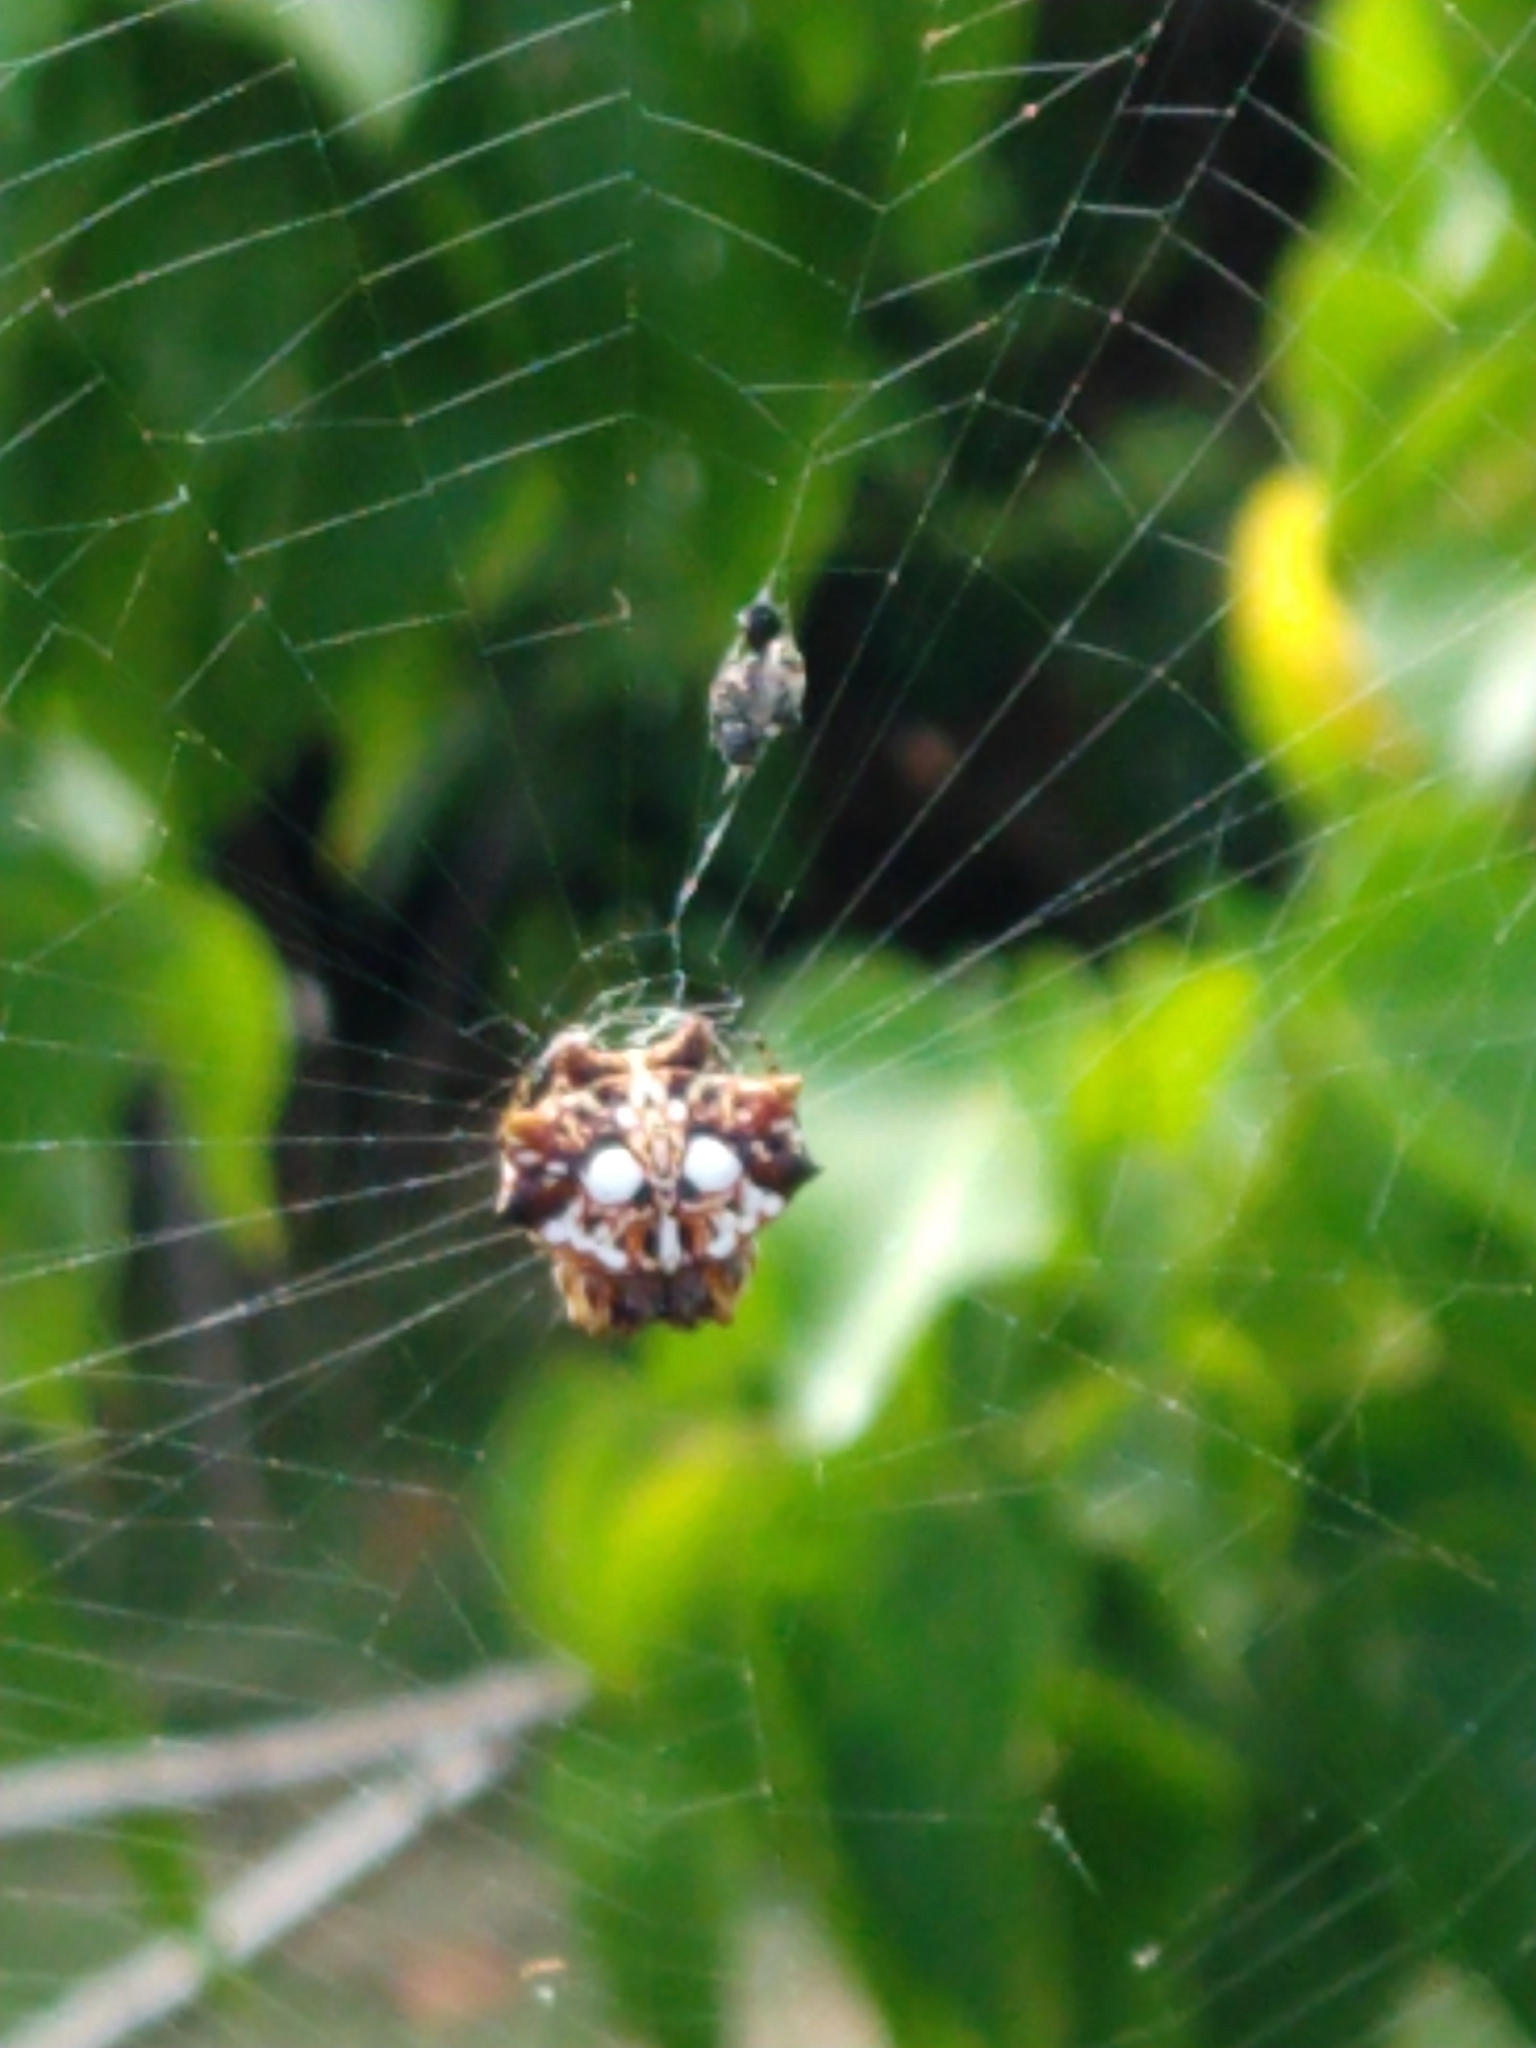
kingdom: Animalia
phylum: Arthropoda
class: Arachnida
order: Araneae
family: Araneidae
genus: Thelacantha
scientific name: Thelacantha brevispina
